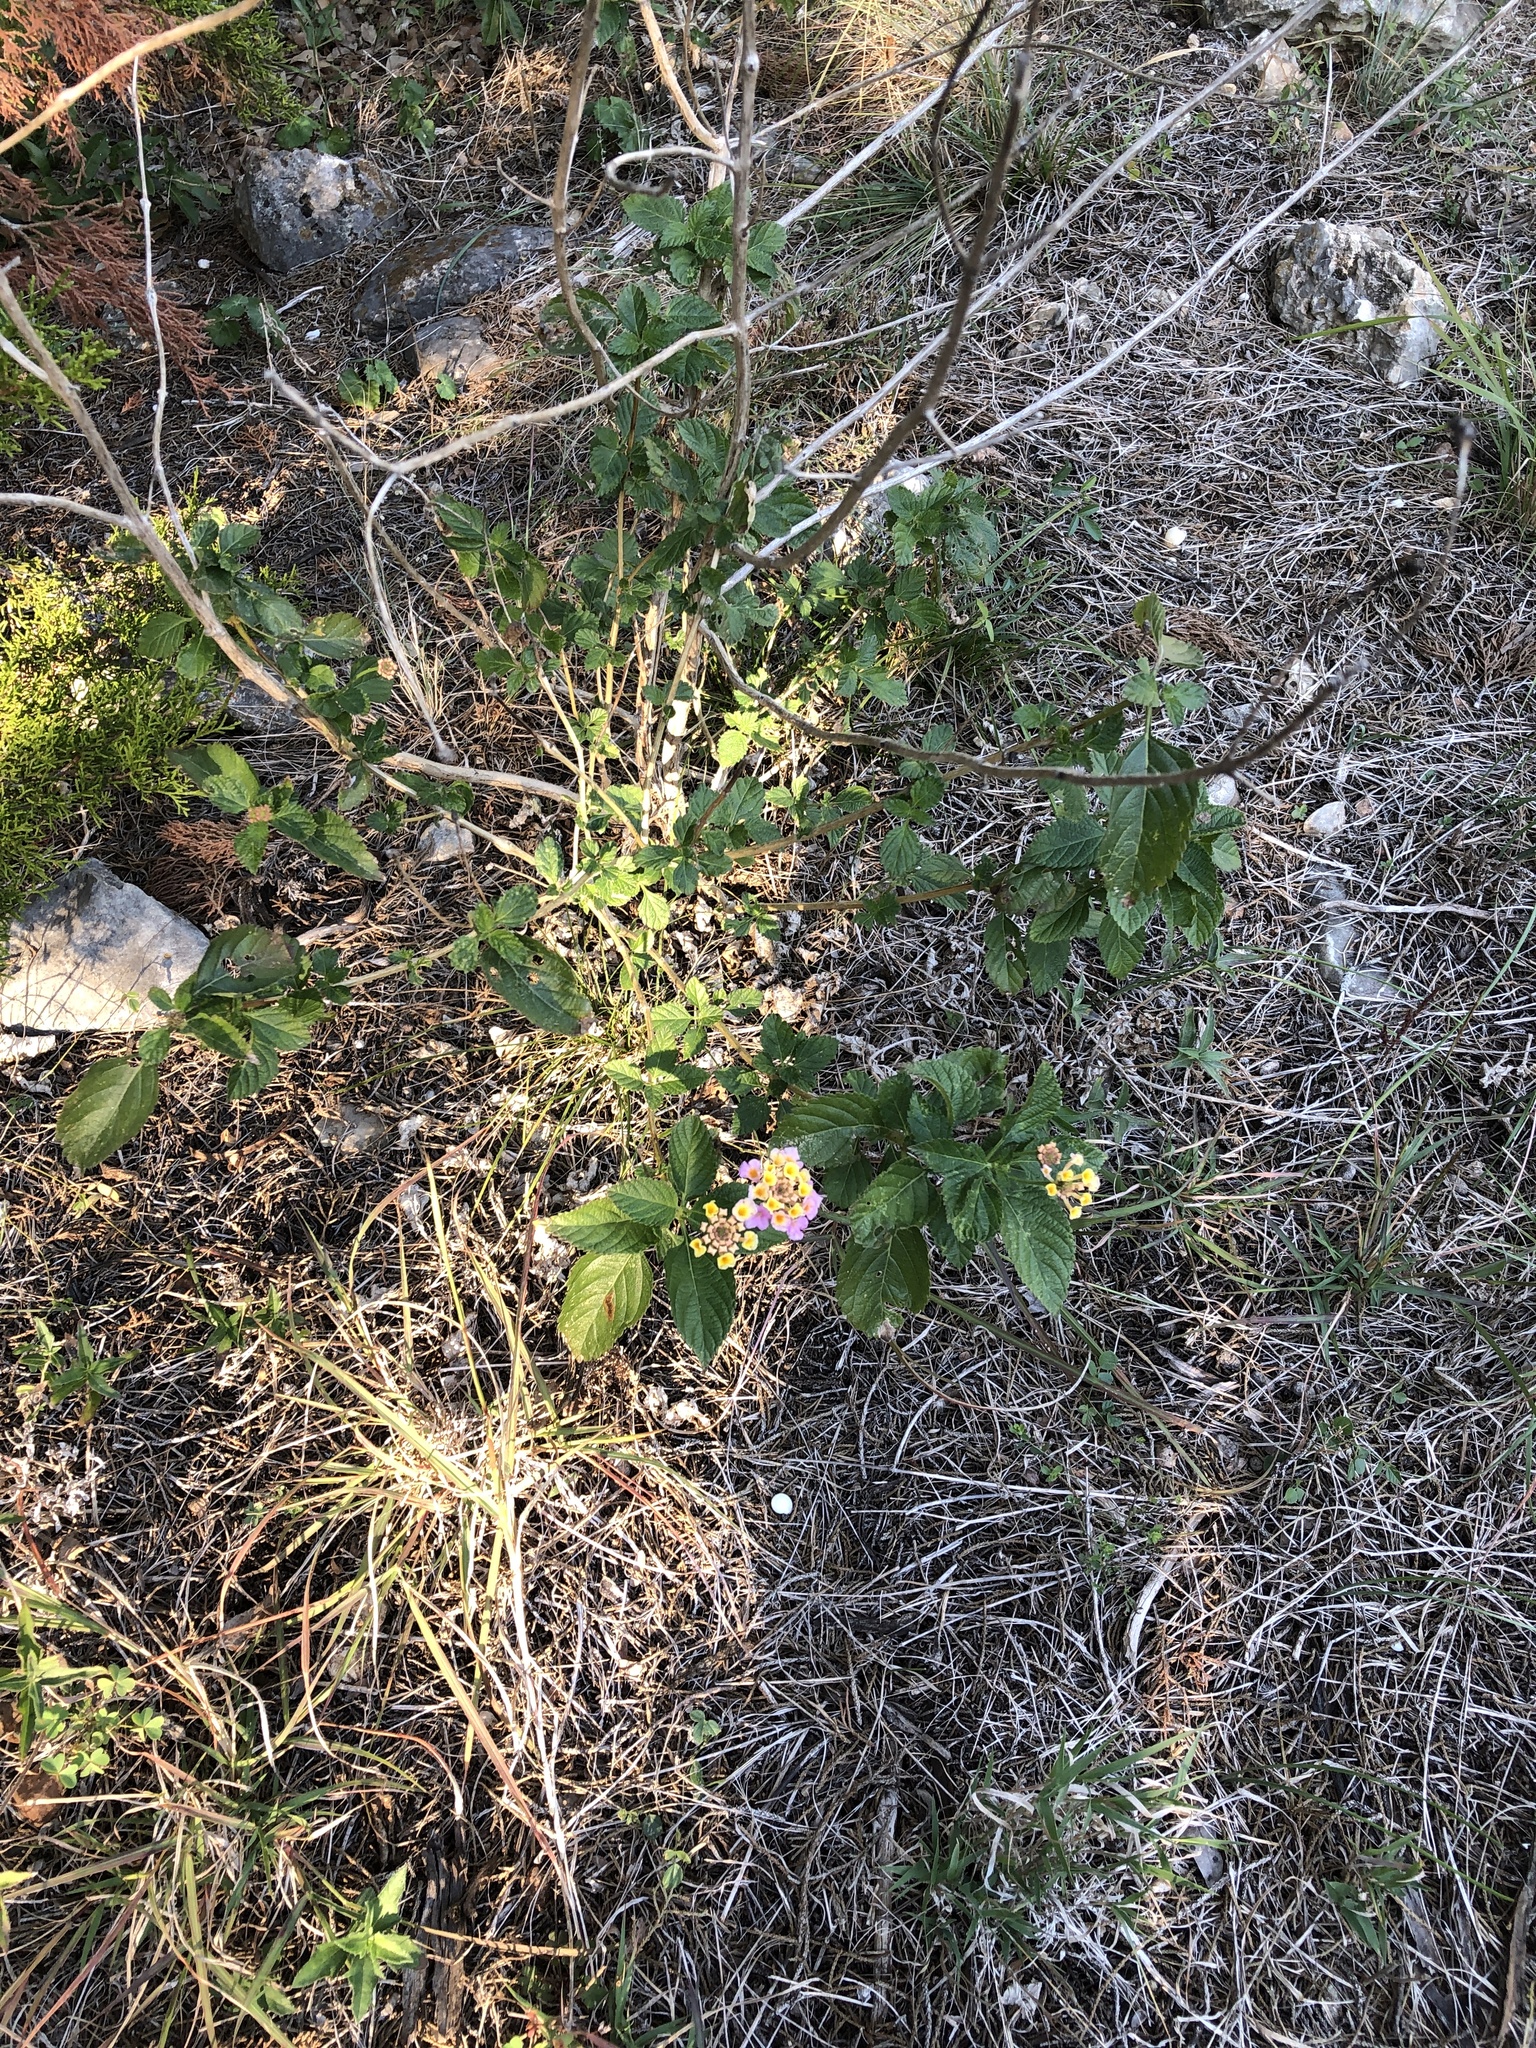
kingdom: Plantae
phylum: Tracheophyta
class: Magnoliopsida
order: Lamiales
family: Verbenaceae
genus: Lantana
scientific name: Lantana strigocamara
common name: Lantana
